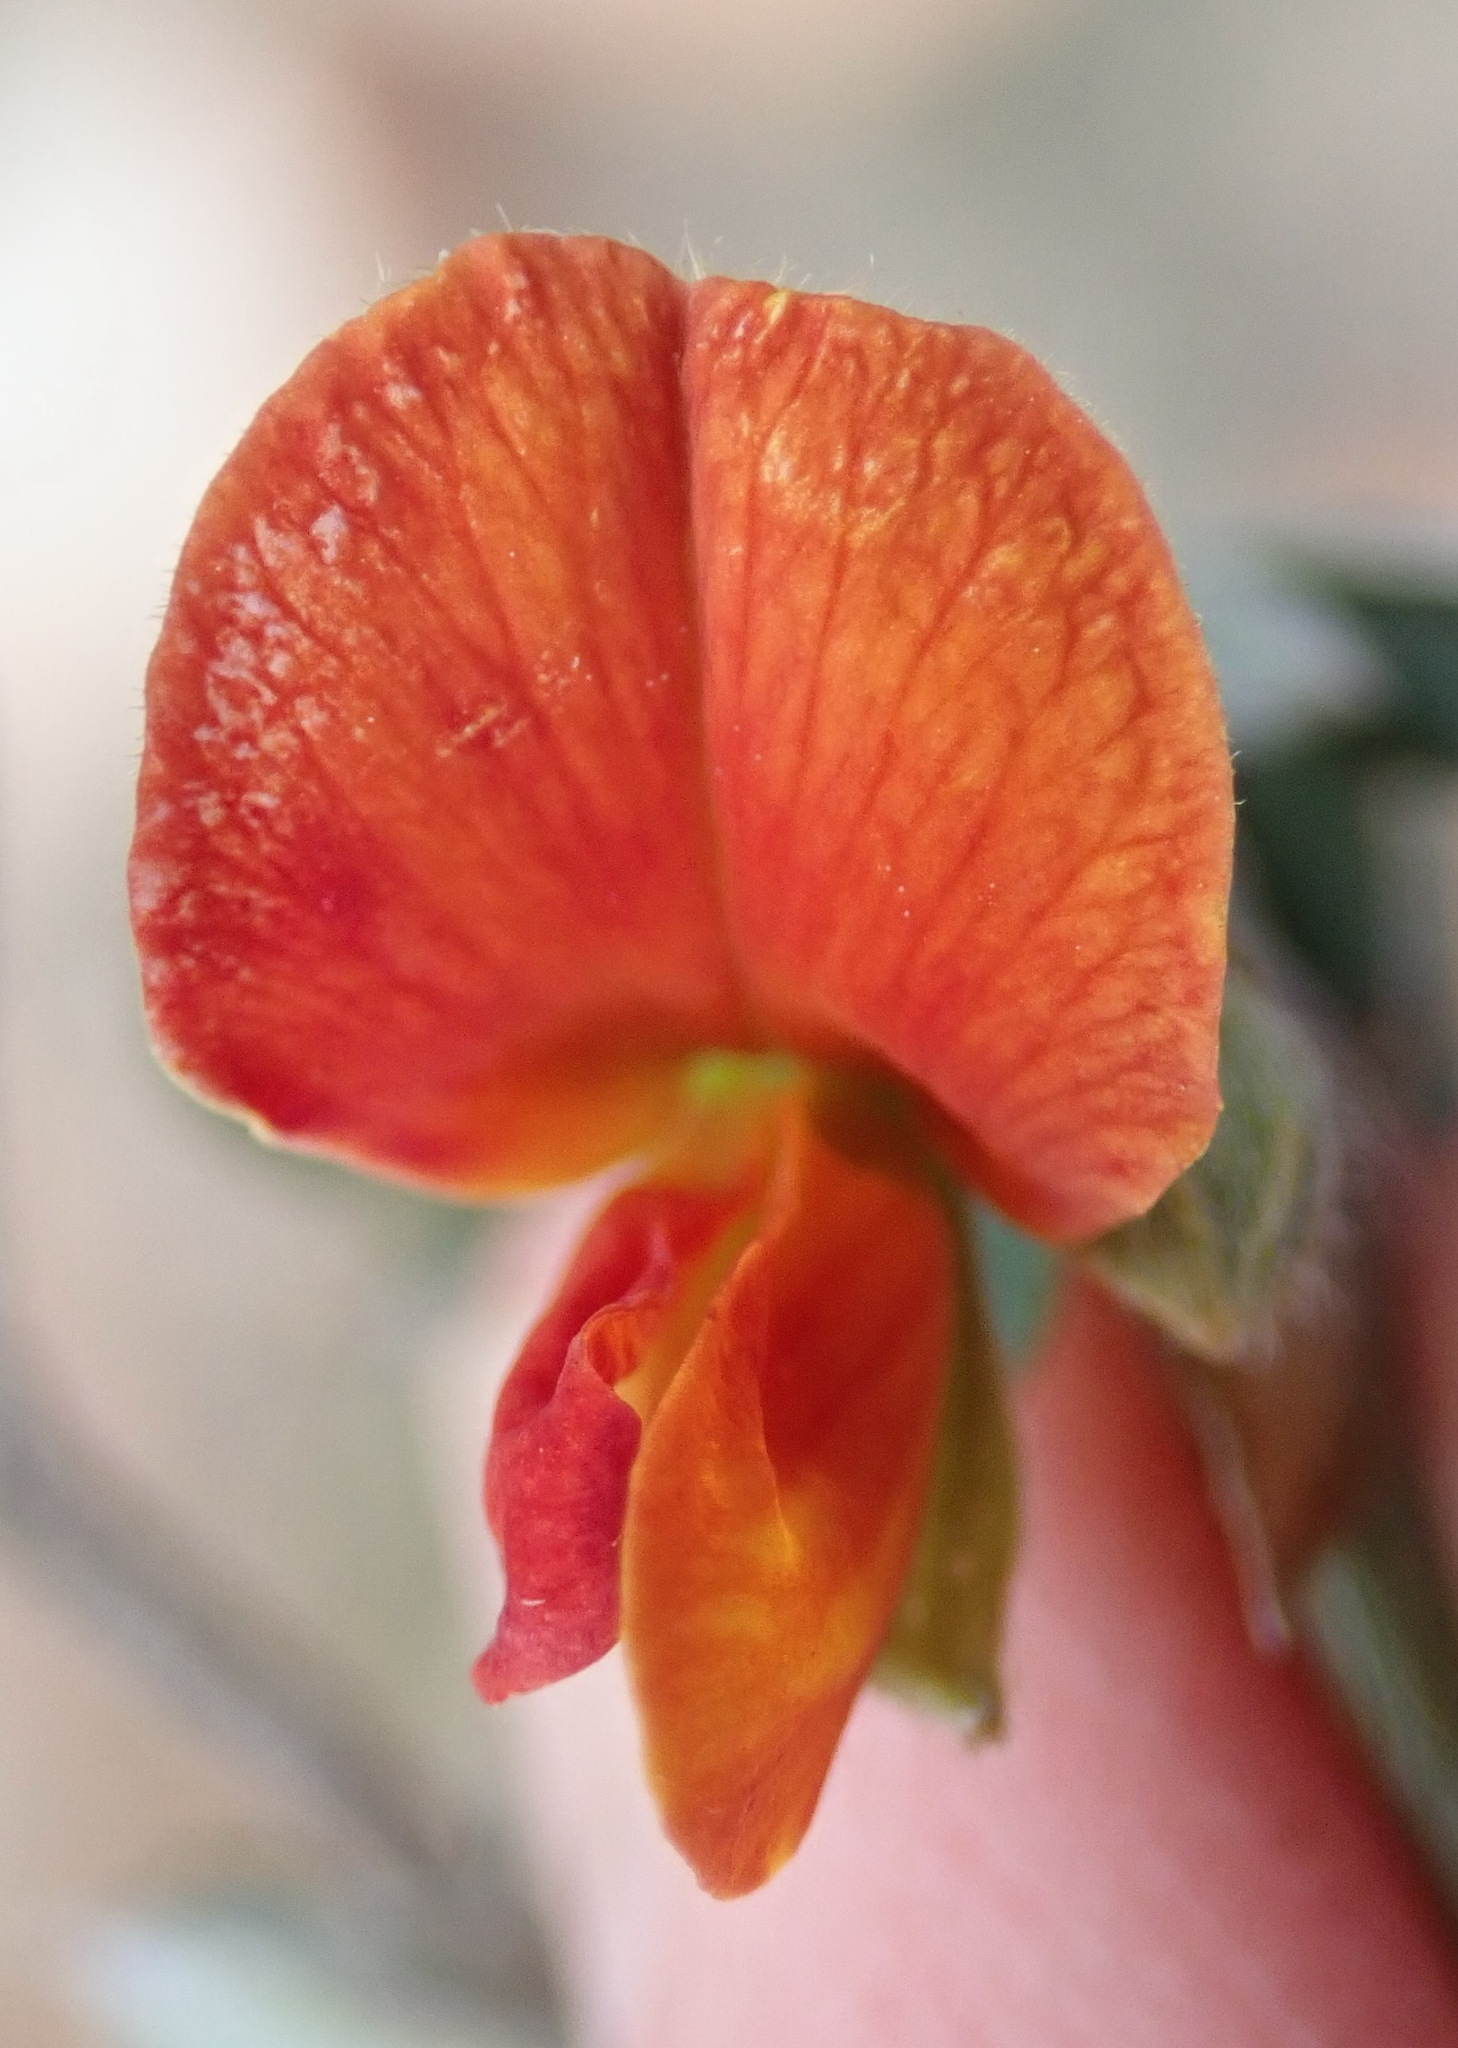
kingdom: Plantae
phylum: Tracheophyta
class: Magnoliopsida
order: Fabales
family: Fabaceae
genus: Lotononis
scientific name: Lotononis pungens
